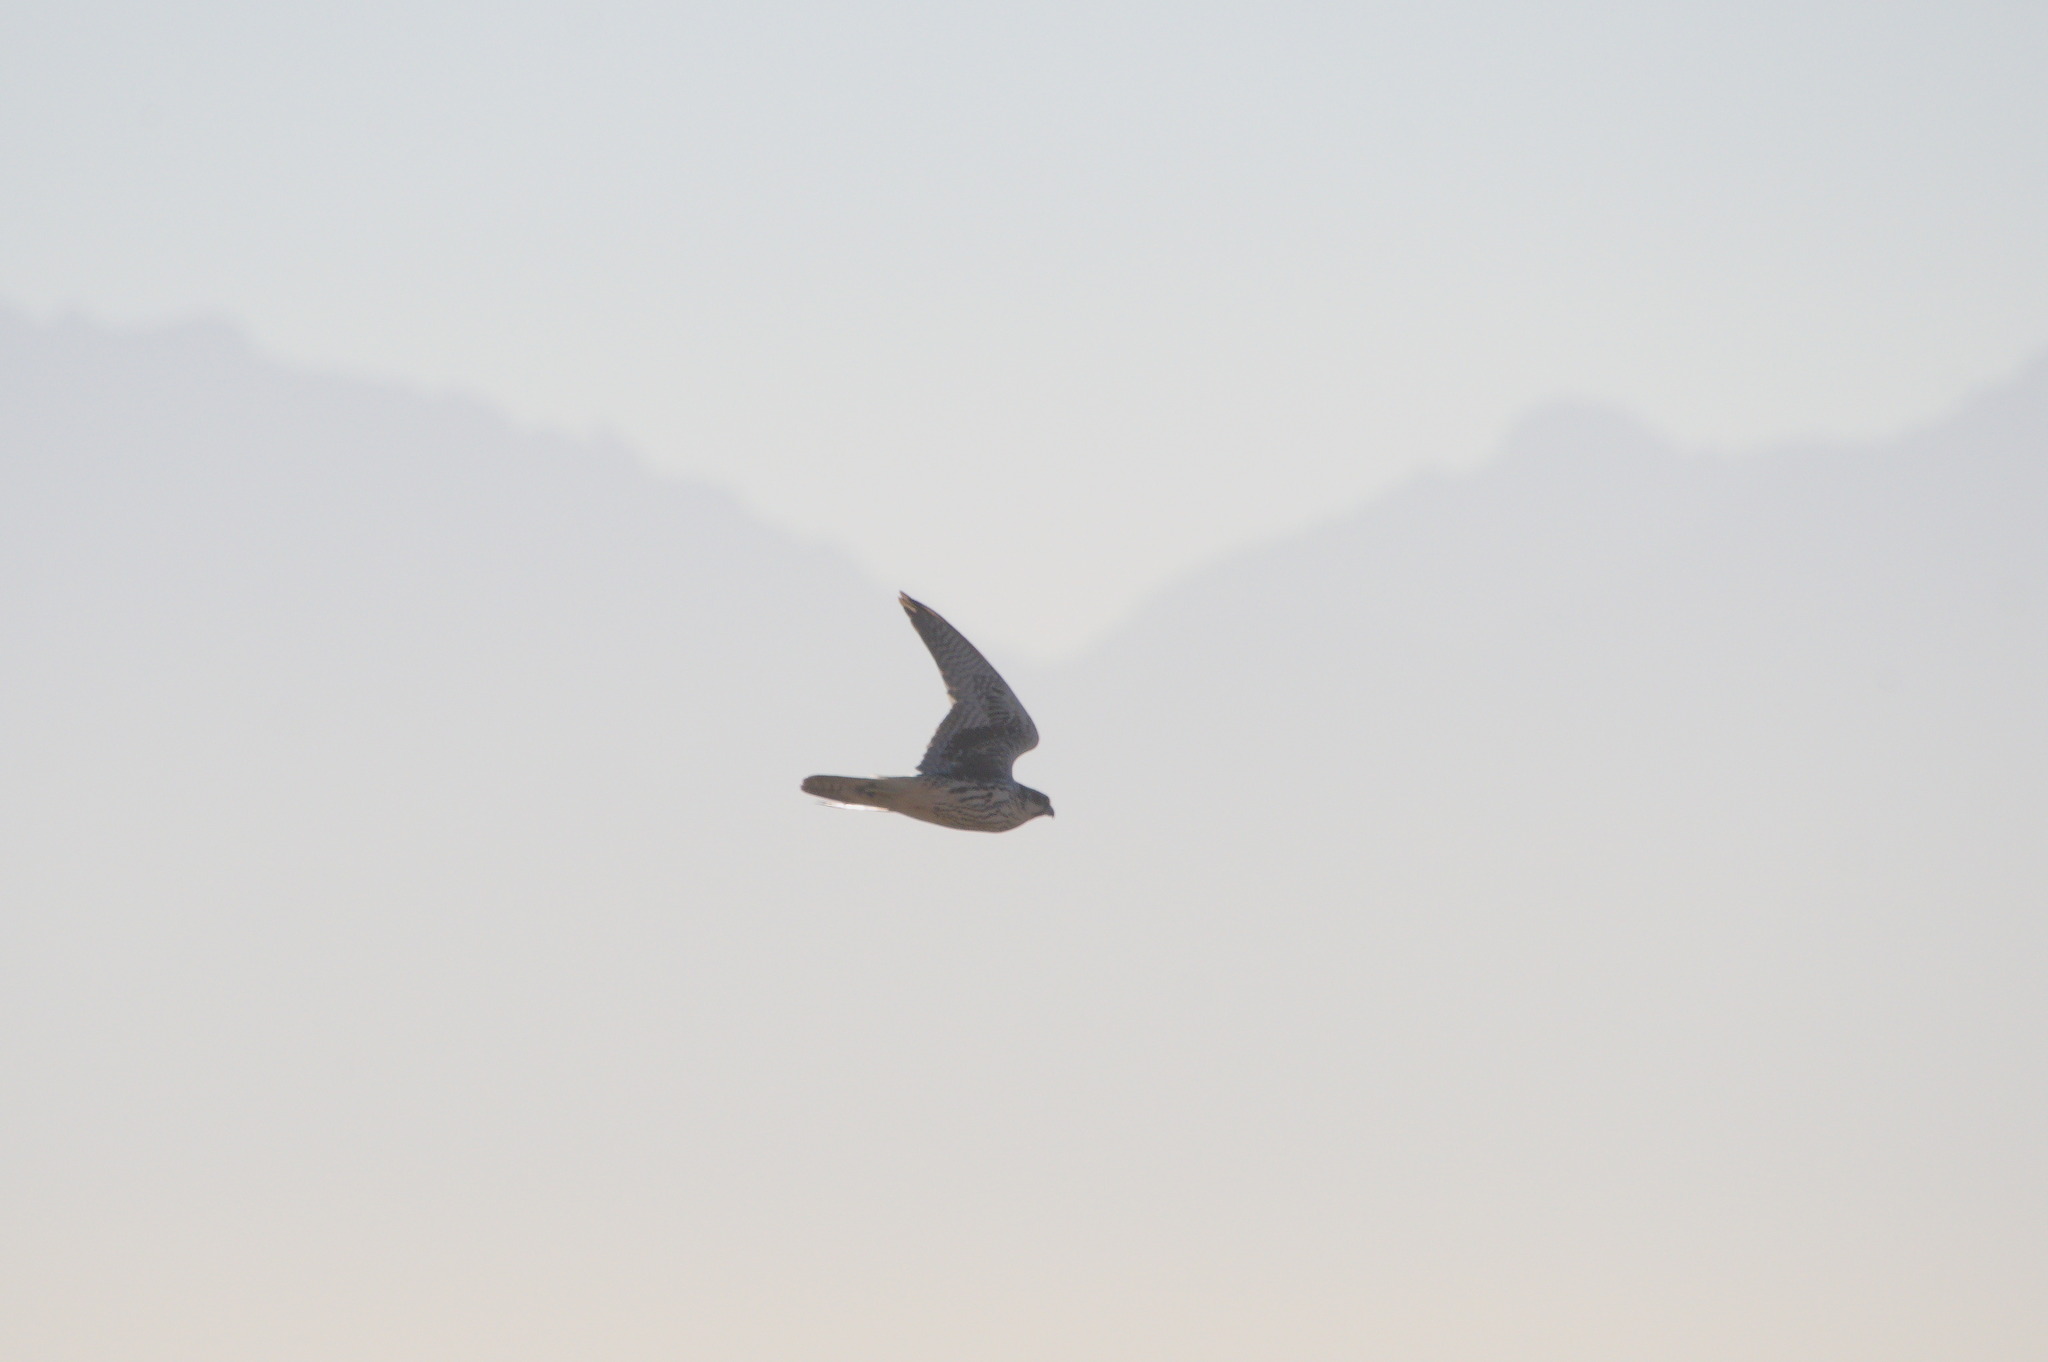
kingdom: Animalia
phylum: Chordata
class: Aves
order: Falconiformes
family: Falconidae
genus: Falco
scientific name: Falco mexicanus
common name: Prairie falcon
